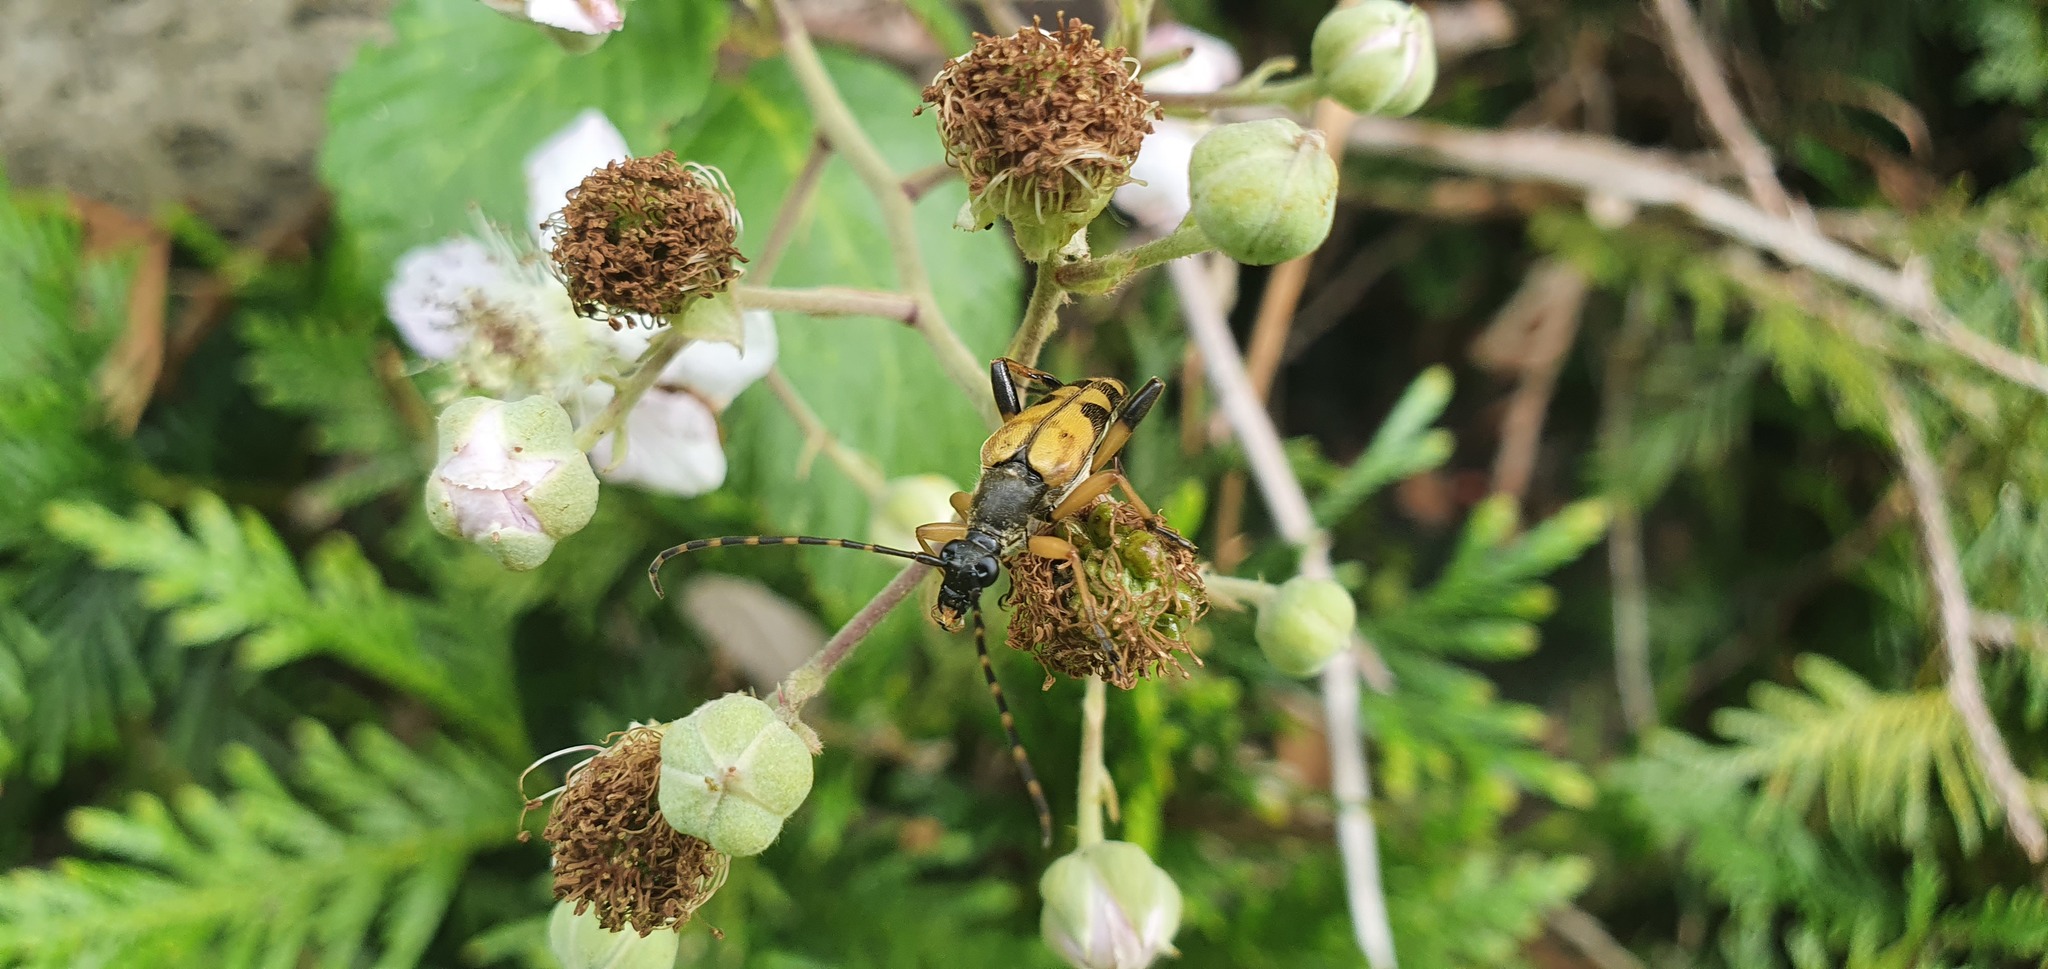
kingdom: Animalia
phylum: Arthropoda
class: Insecta
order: Coleoptera
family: Cerambycidae
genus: Rutpela
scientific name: Rutpela maculata
